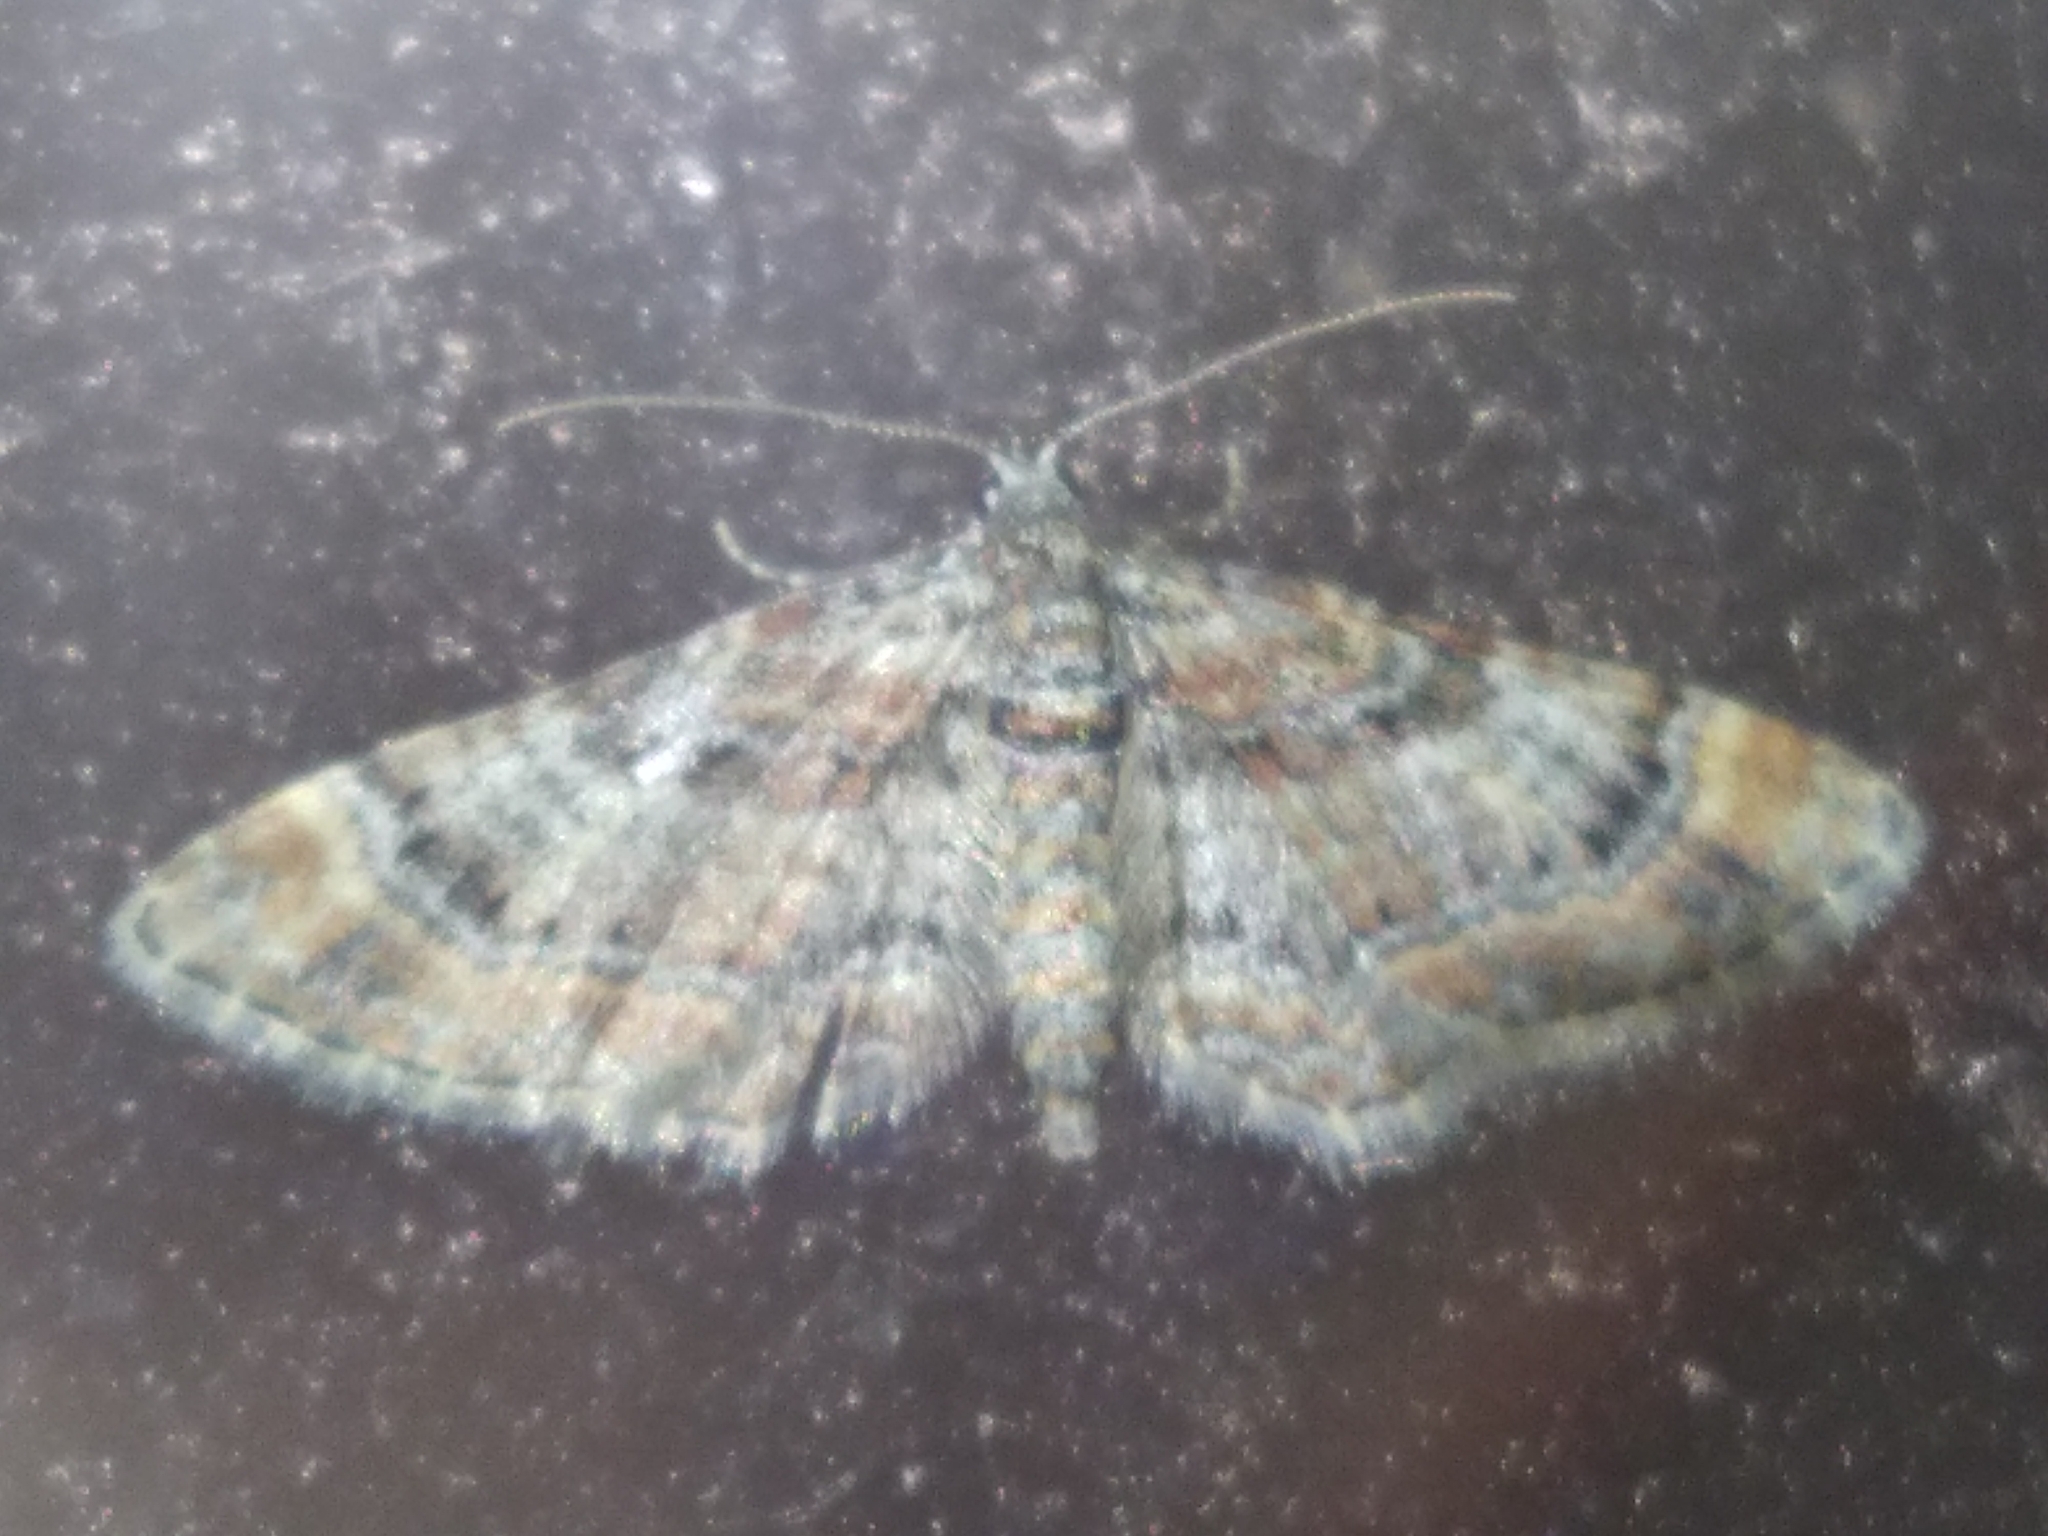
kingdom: Animalia
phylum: Arthropoda
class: Insecta
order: Lepidoptera
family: Geometridae
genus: Gymnoscelis
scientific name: Gymnoscelis rufifasciata
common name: Double-striped pug
